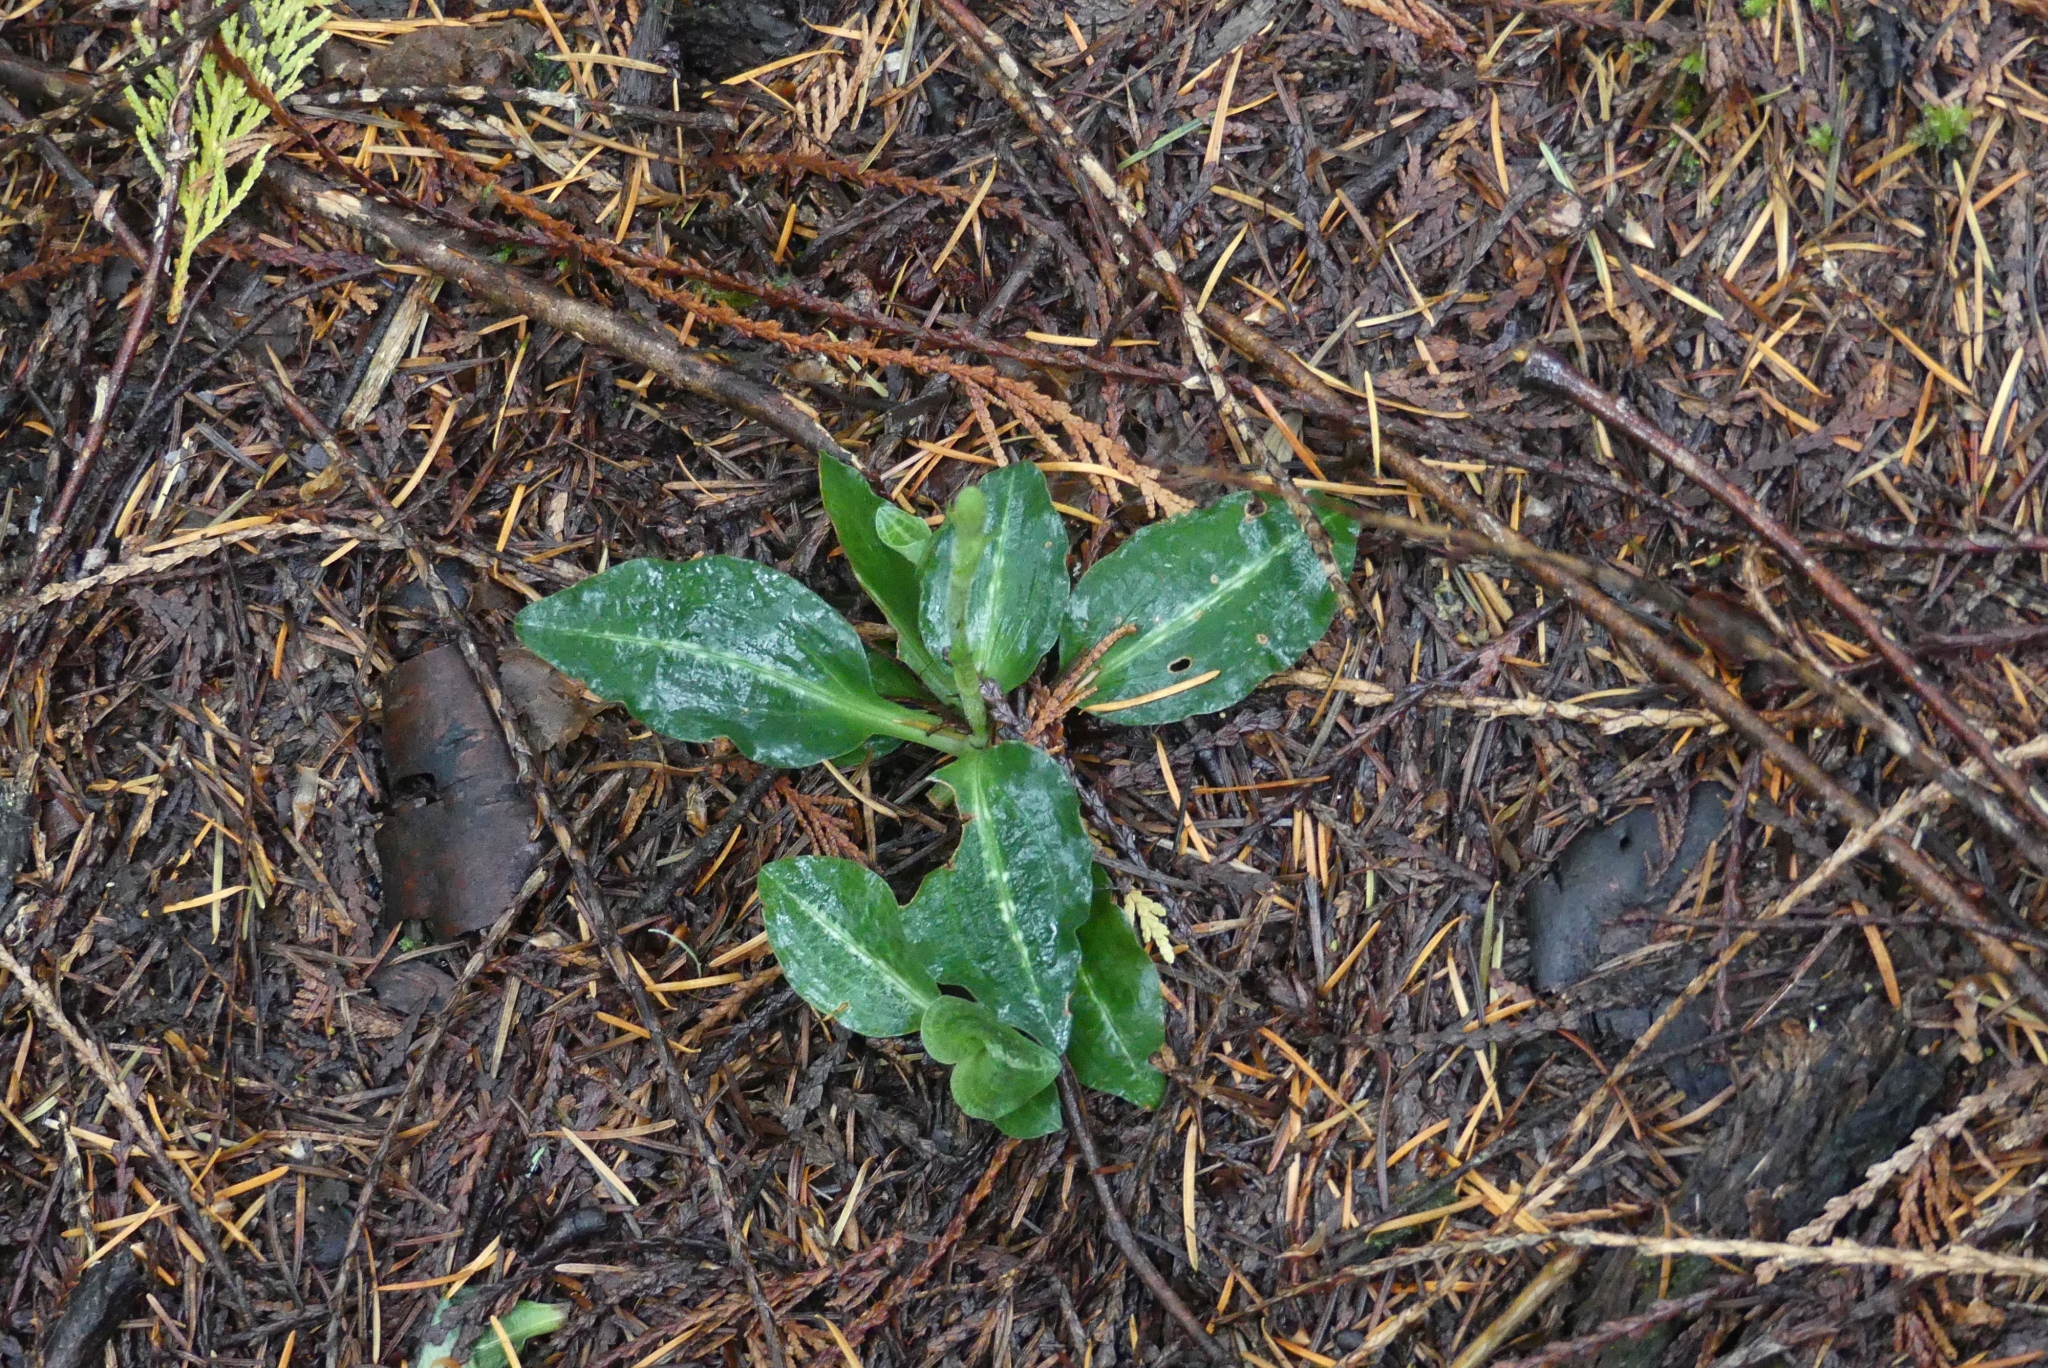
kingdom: Plantae
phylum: Tracheophyta
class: Liliopsida
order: Asparagales
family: Orchidaceae
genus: Goodyera
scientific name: Goodyera oblongifolia
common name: Giant rattlesnake-plantain
